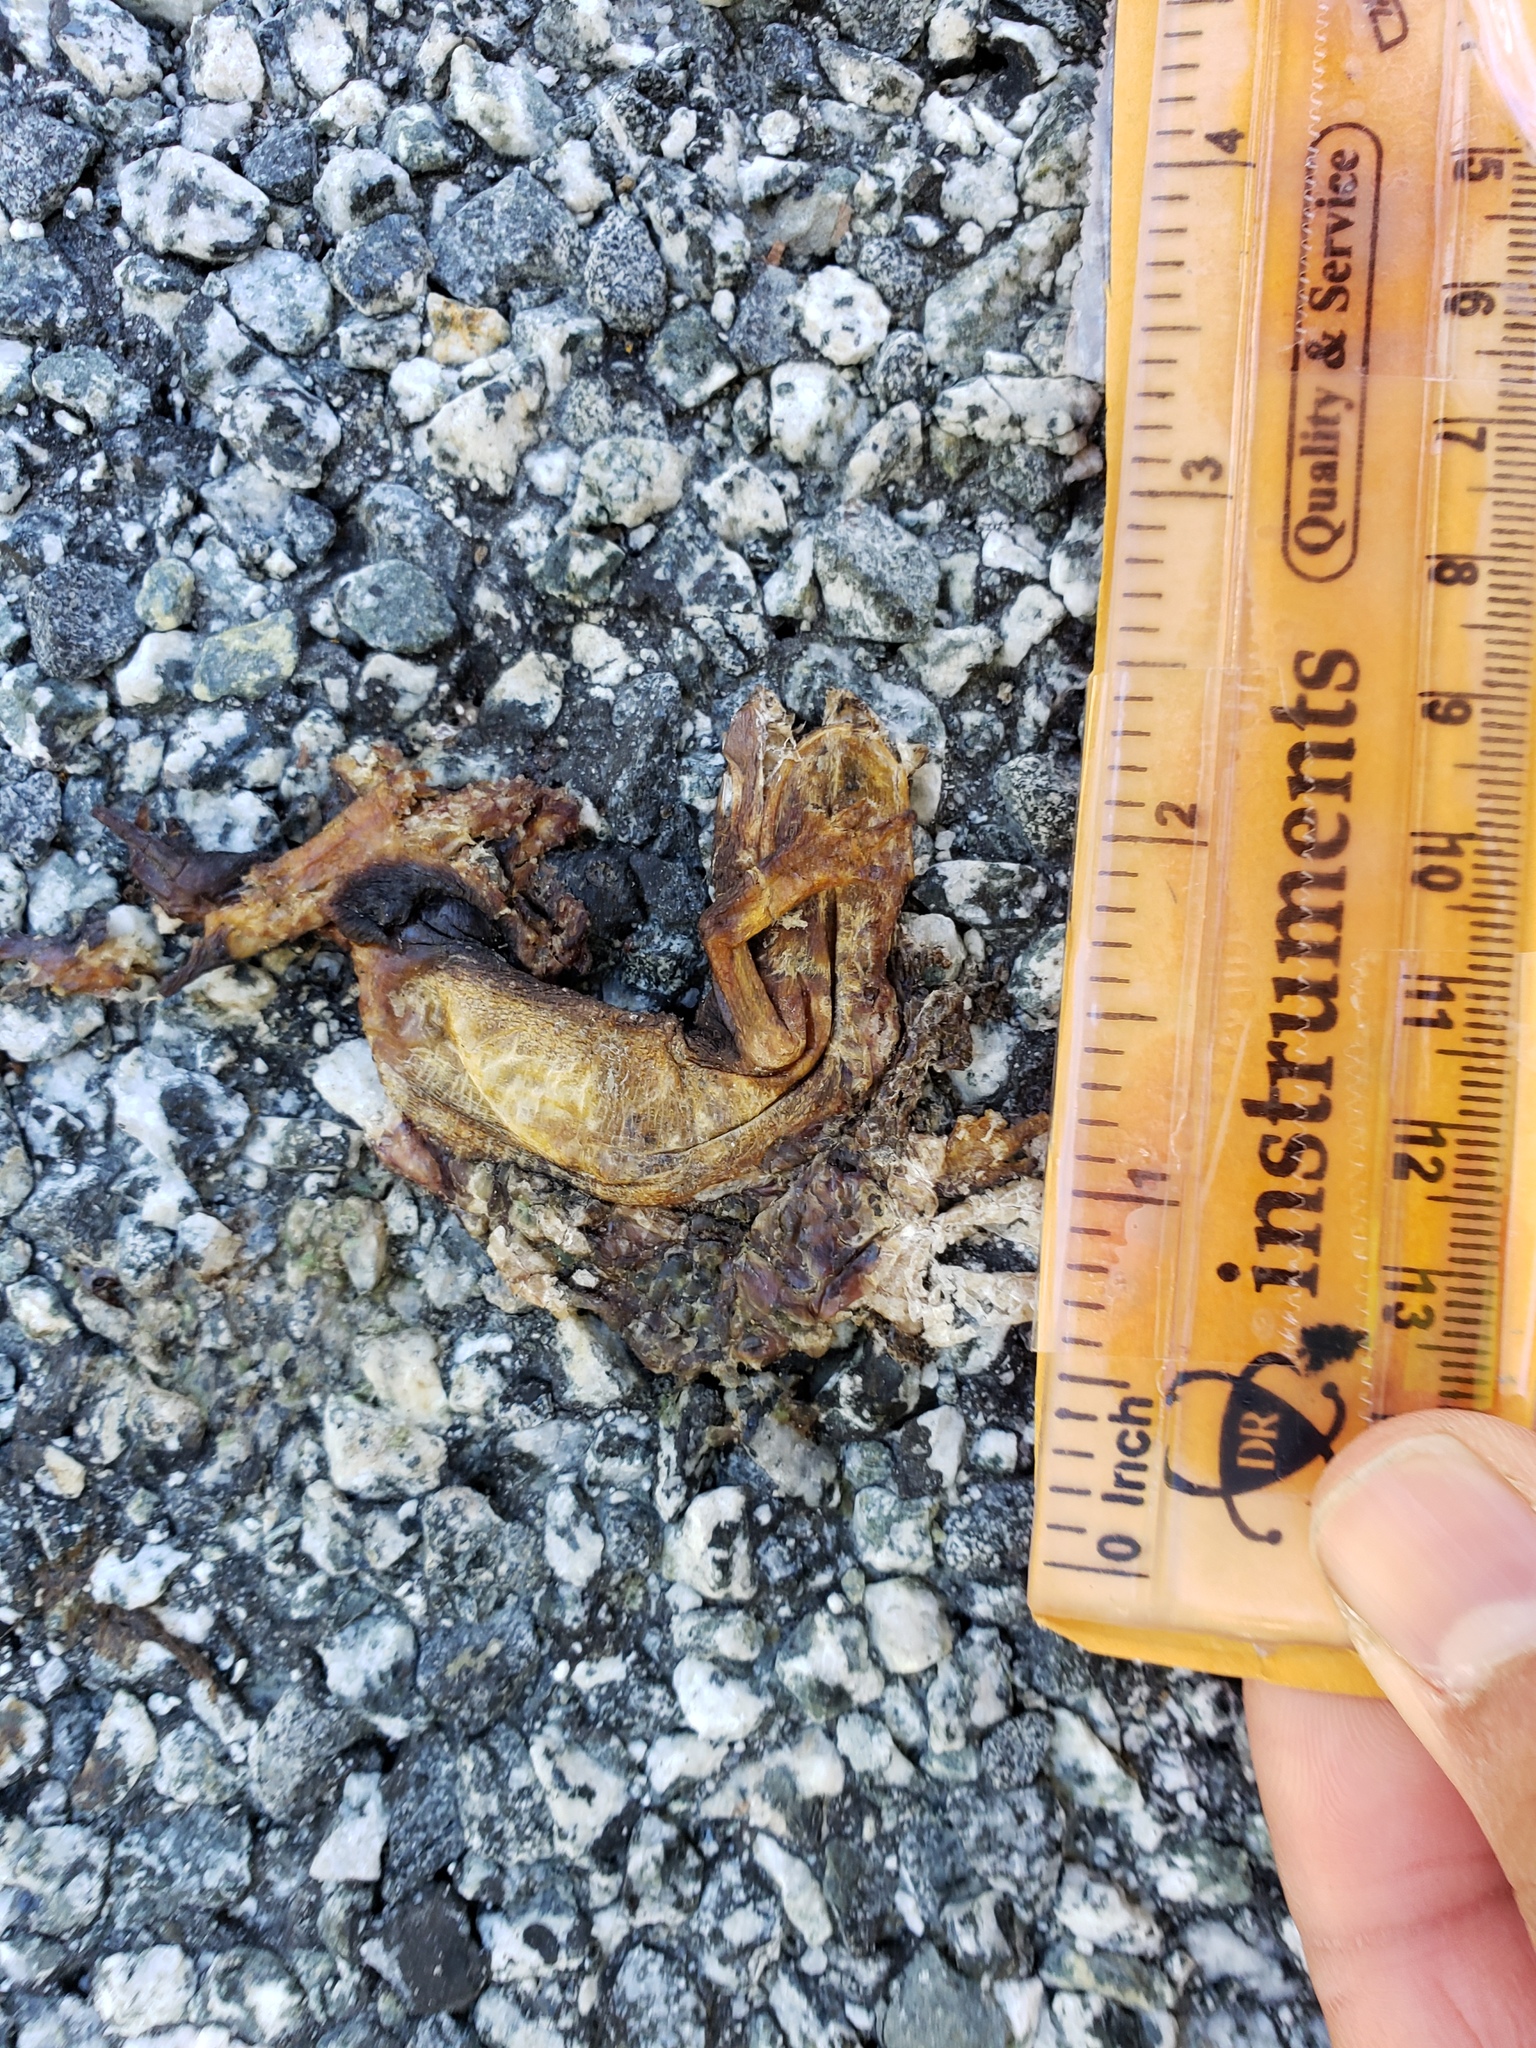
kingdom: Animalia
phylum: Chordata
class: Amphibia
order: Caudata
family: Salamandridae
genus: Taricha
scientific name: Taricha
